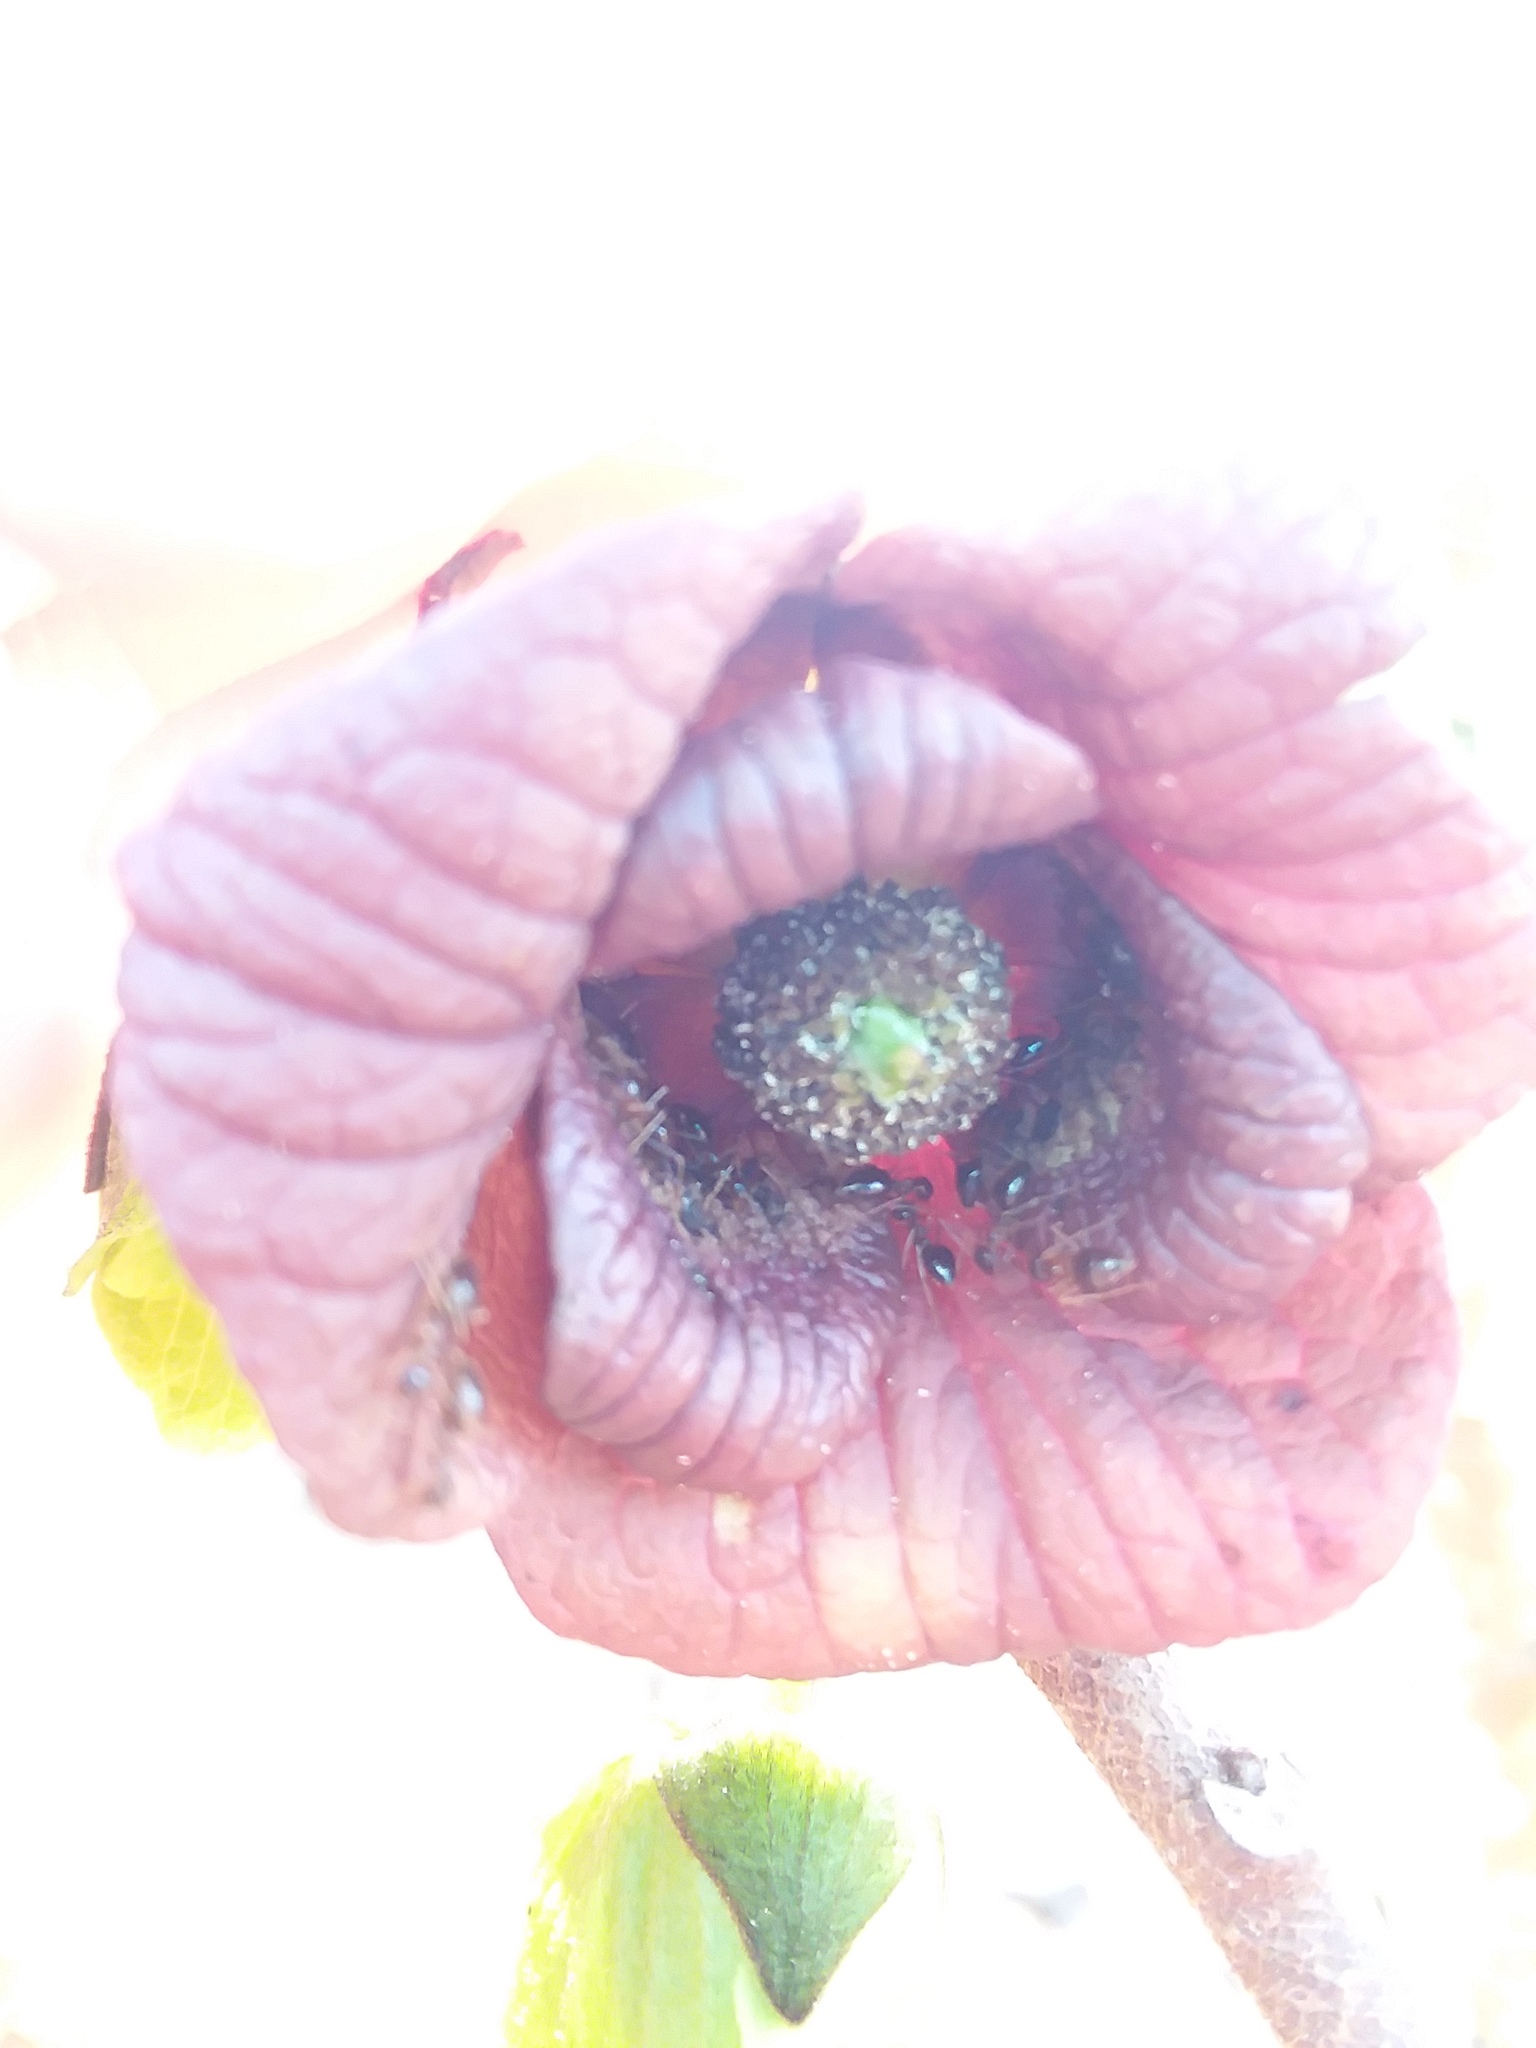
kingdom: Animalia
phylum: Arthropoda
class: Insecta
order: Hymenoptera
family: Formicidae
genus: Prenolepis
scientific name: Prenolepis imparis
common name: Small honey ant
